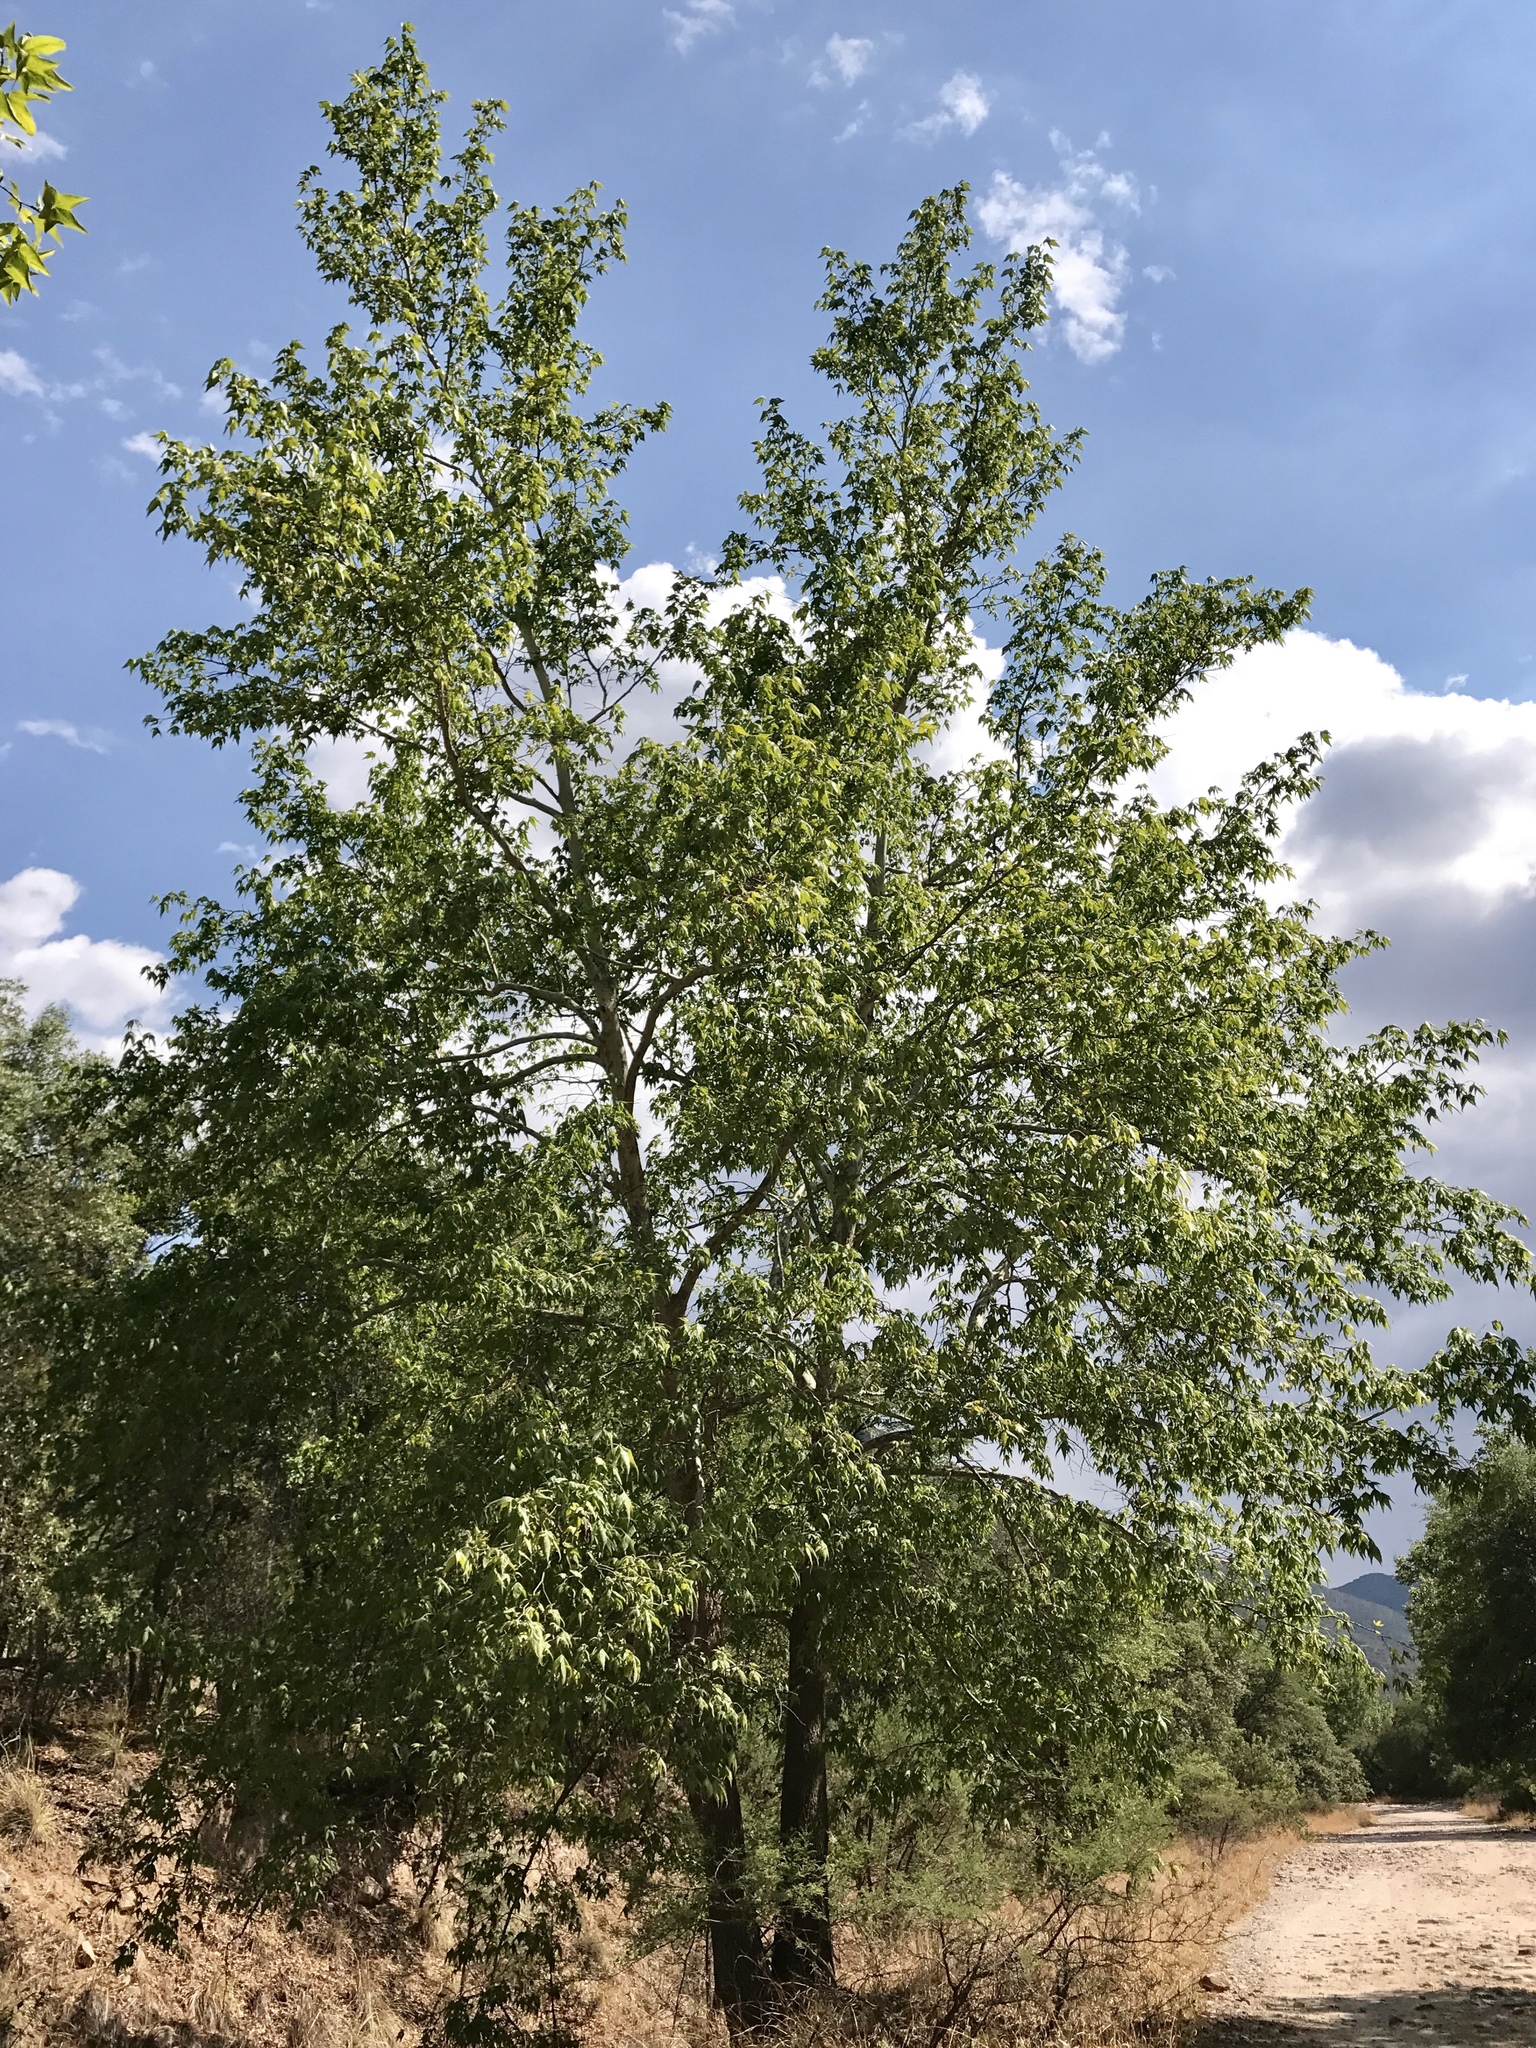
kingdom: Plantae
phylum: Tracheophyta
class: Magnoliopsida
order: Proteales
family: Platanaceae
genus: Platanus
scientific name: Platanus wrightii
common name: Arizona sycamore
